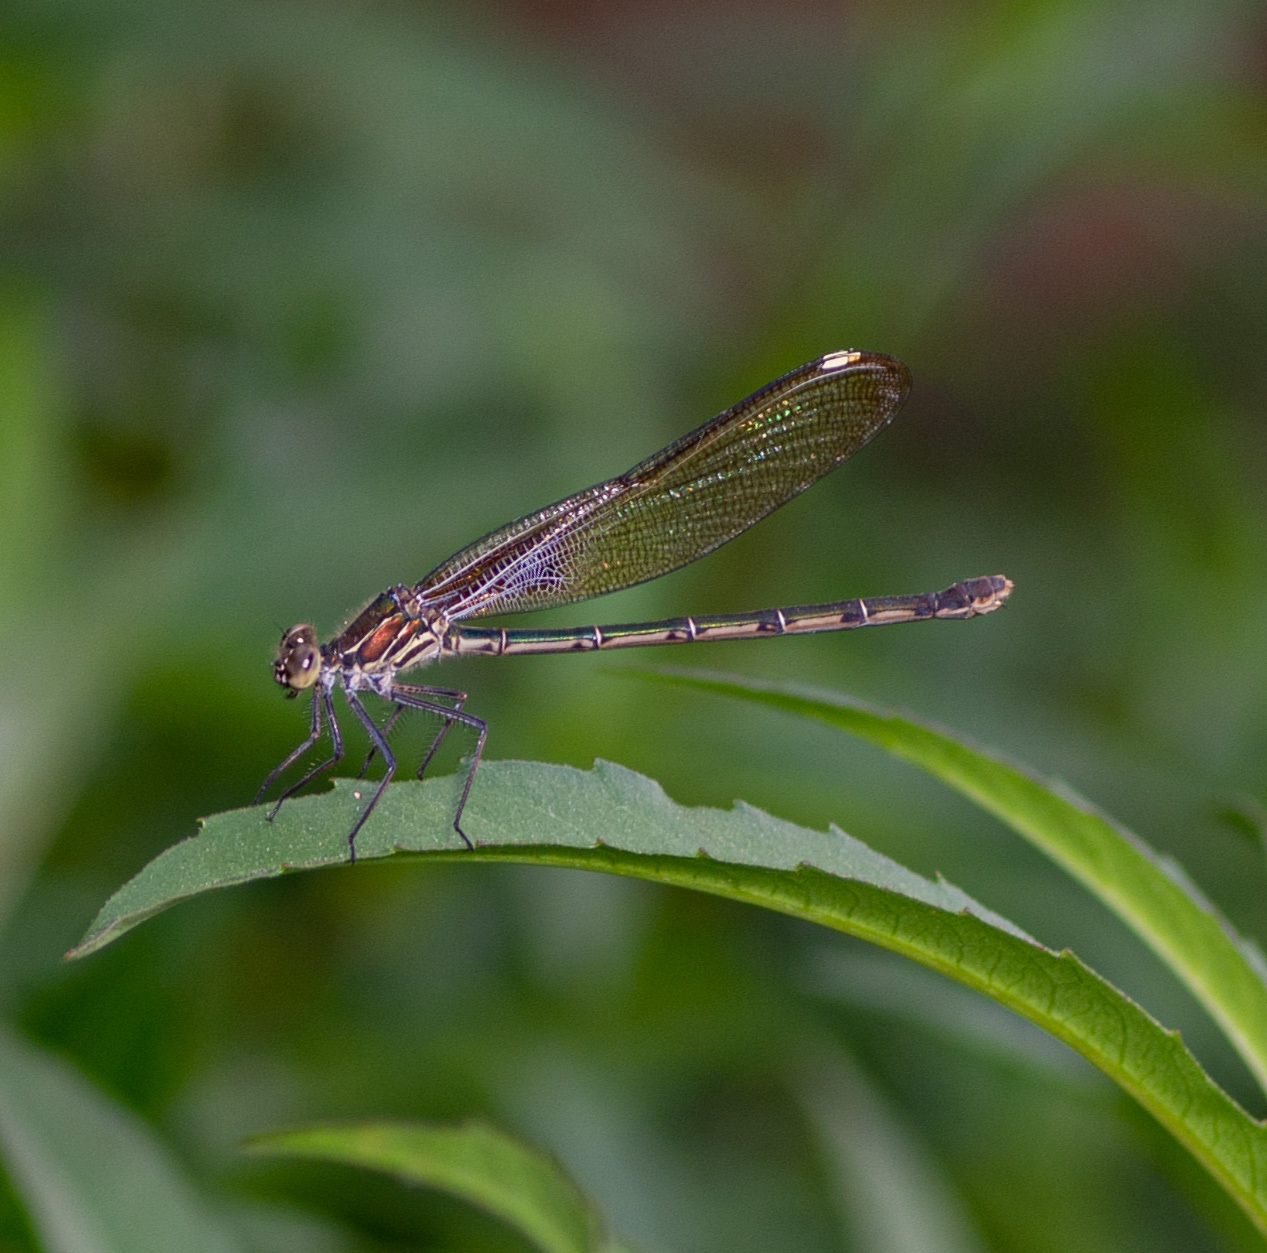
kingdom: Animalia
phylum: Arthropoda
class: Insecta
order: Odonata
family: Calopterygidae
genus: Hetaerina
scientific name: Hetaerina americana
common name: American rubyspot
